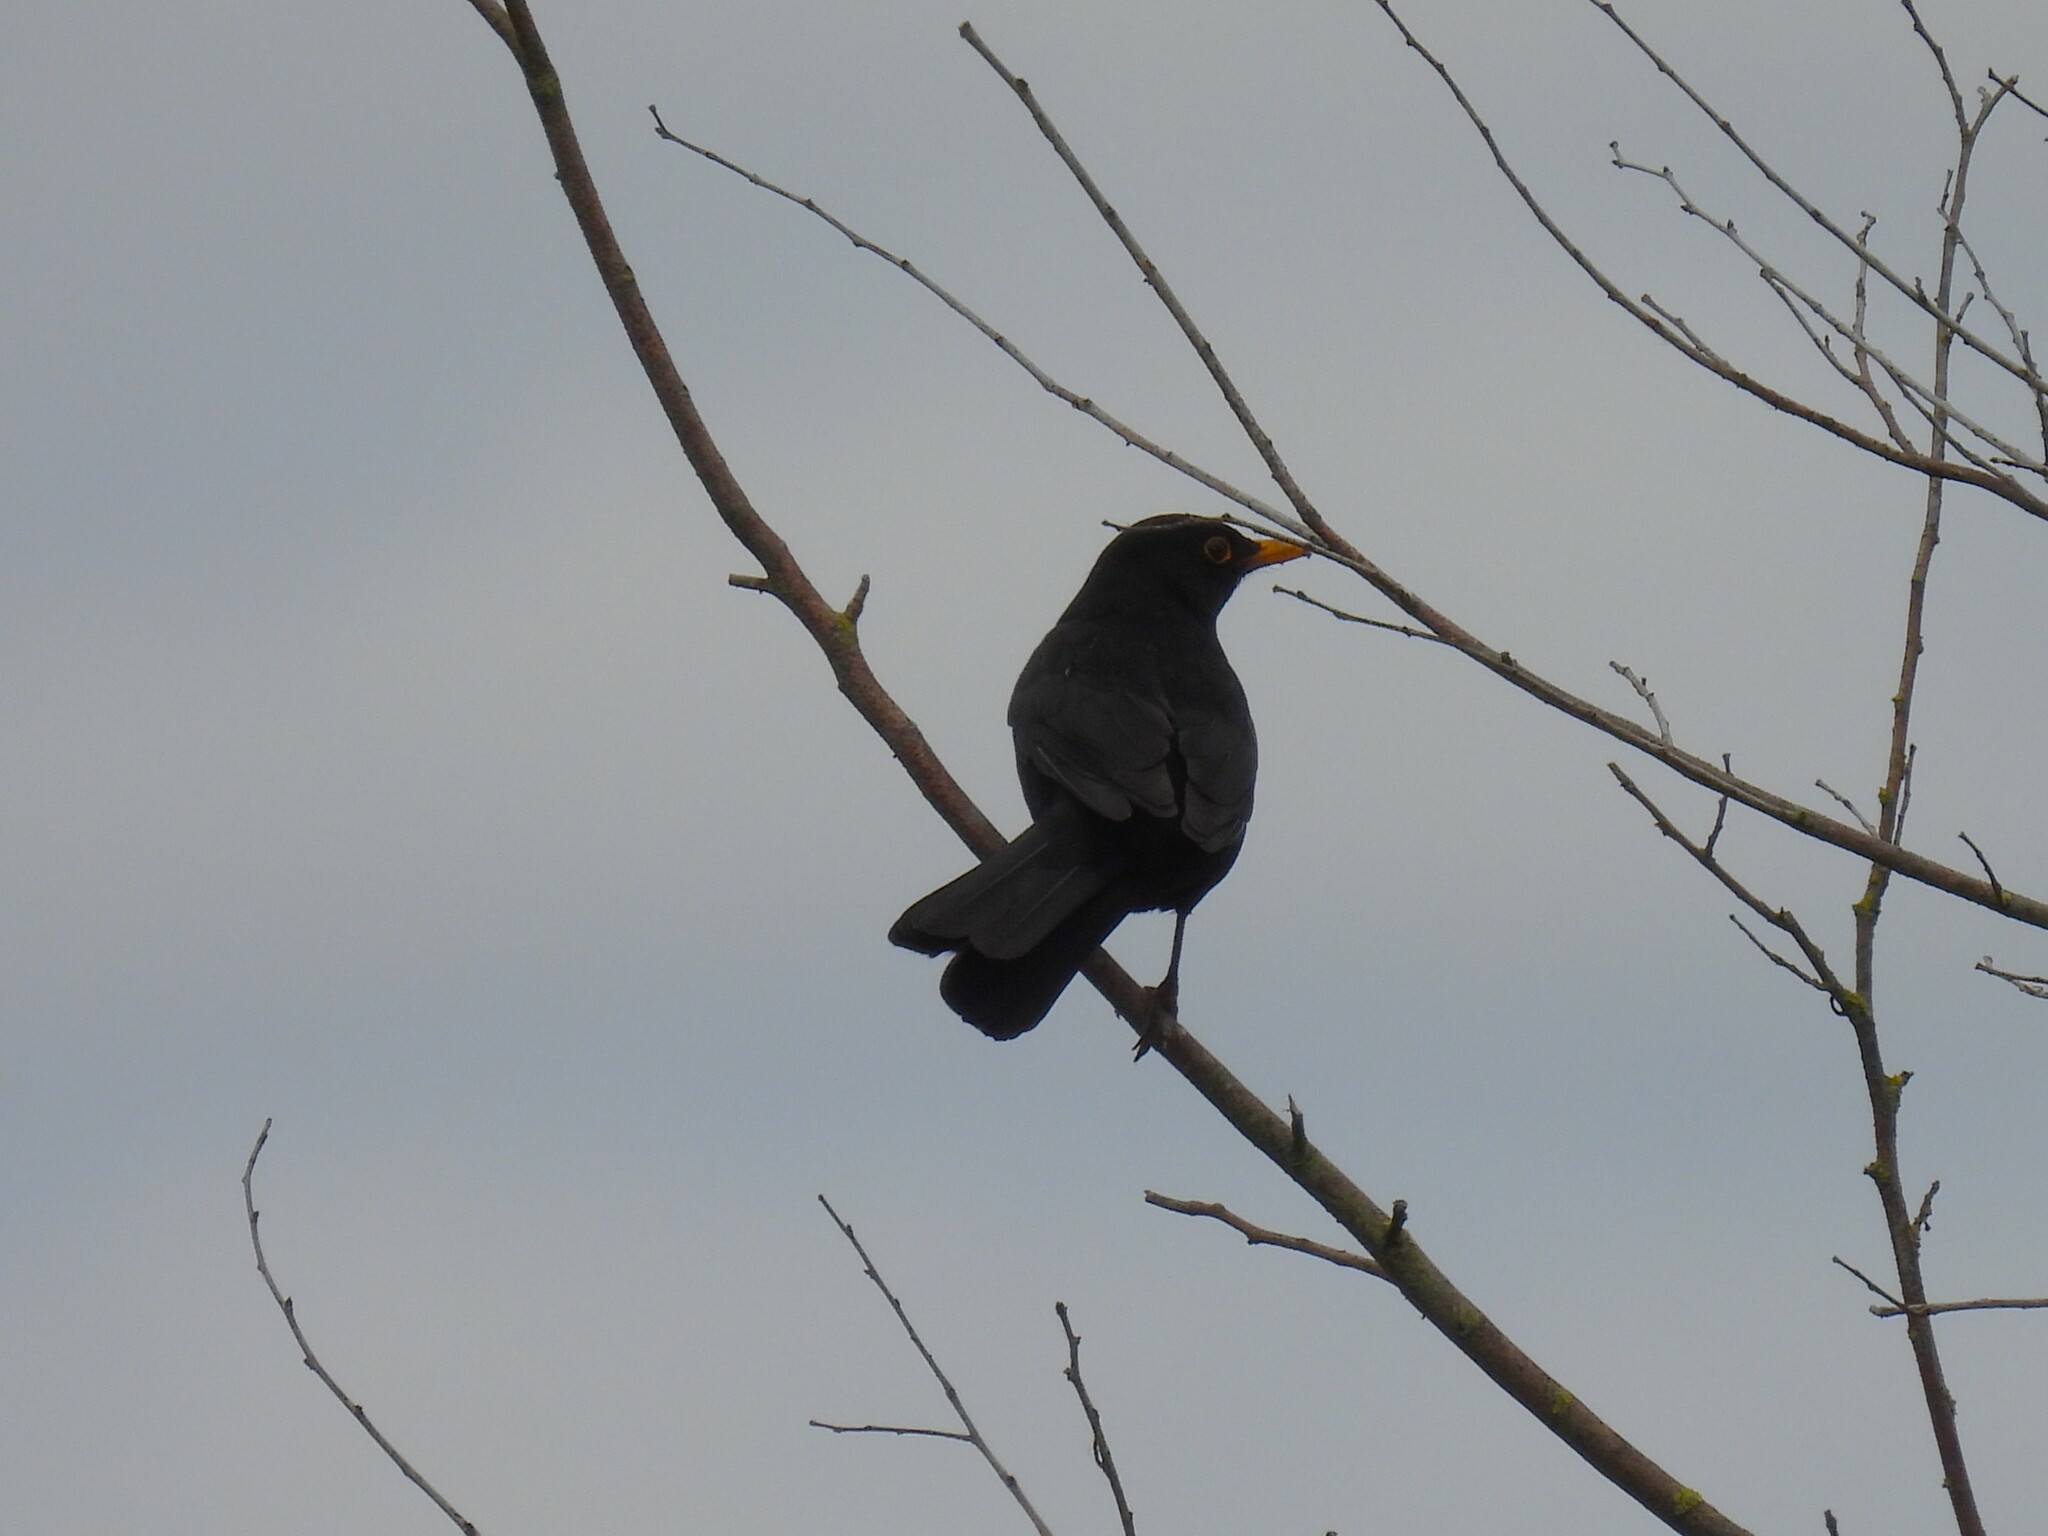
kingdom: Animalia
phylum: Chordata
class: Aves
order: Passeriformes
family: Turdidae
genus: Turdus
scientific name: Turdus merula
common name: Common blackbird
